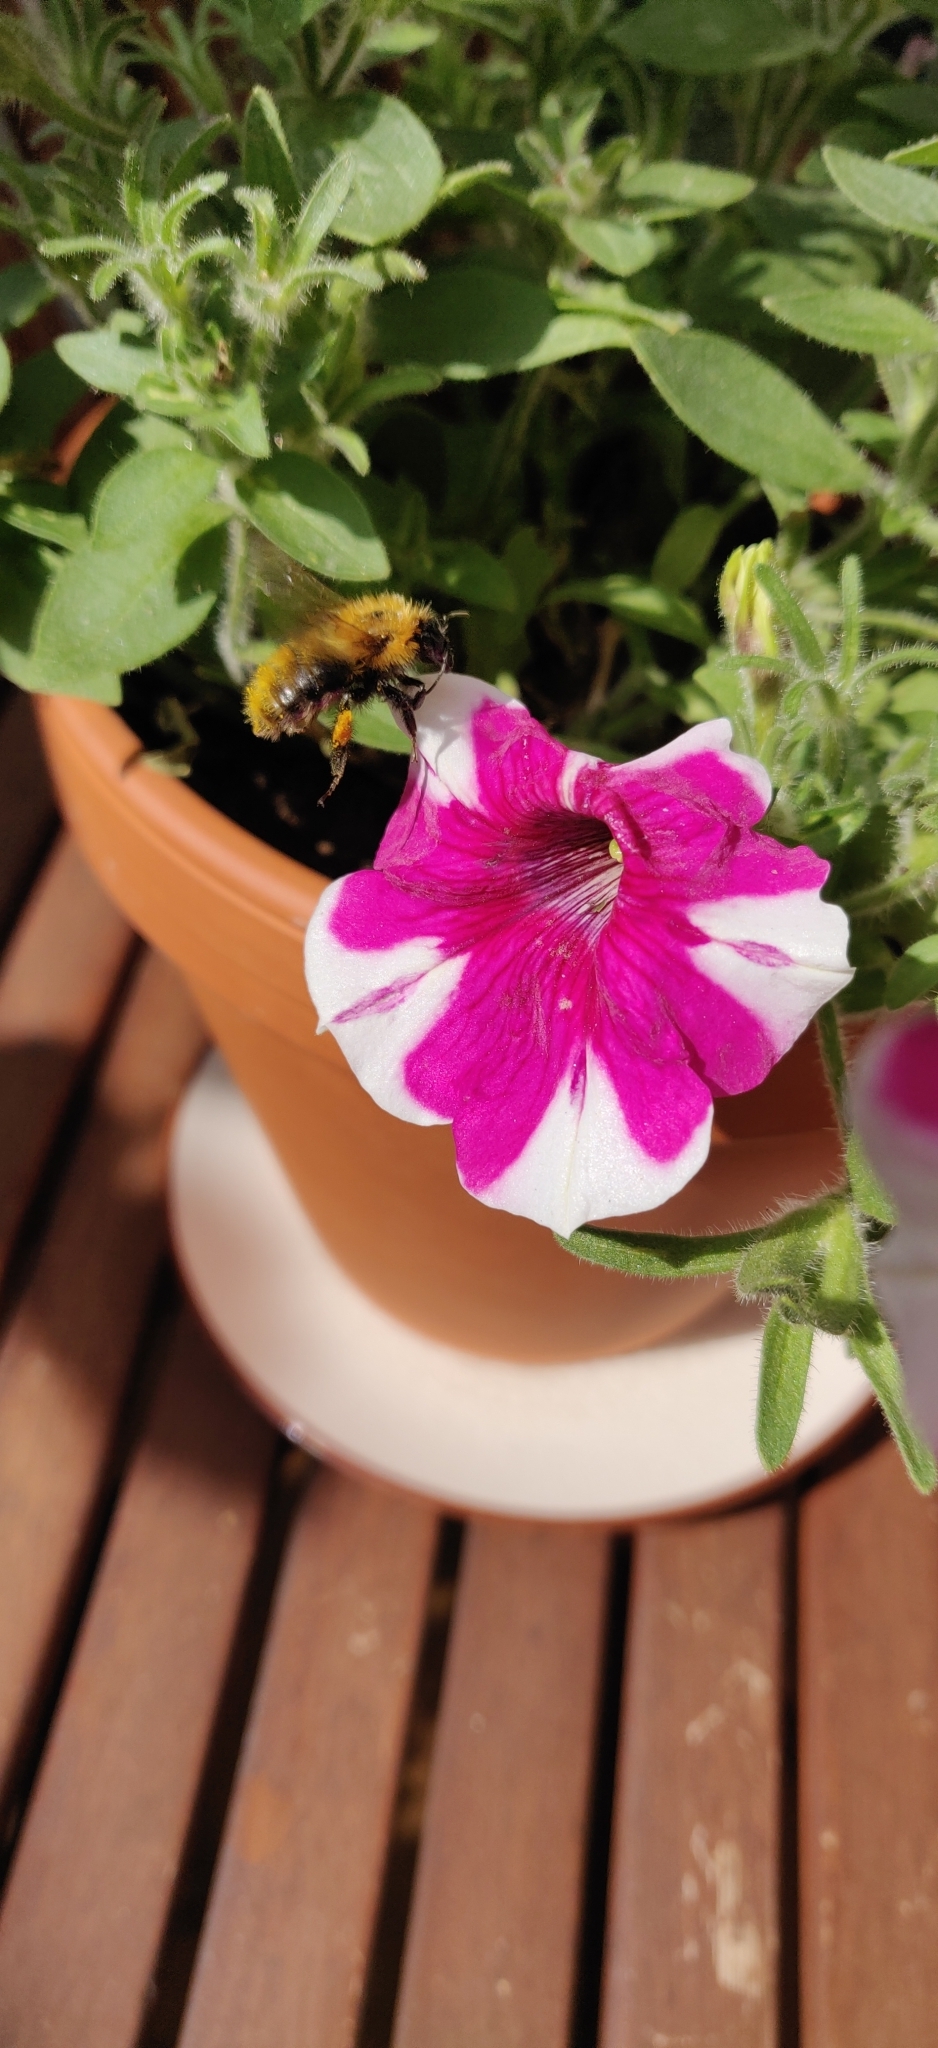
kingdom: Animalia
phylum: Arthropoda
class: Insecta
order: Hymenoptera
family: Apidae
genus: Bombus
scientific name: Bombus pascuorum
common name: Common carder bee
